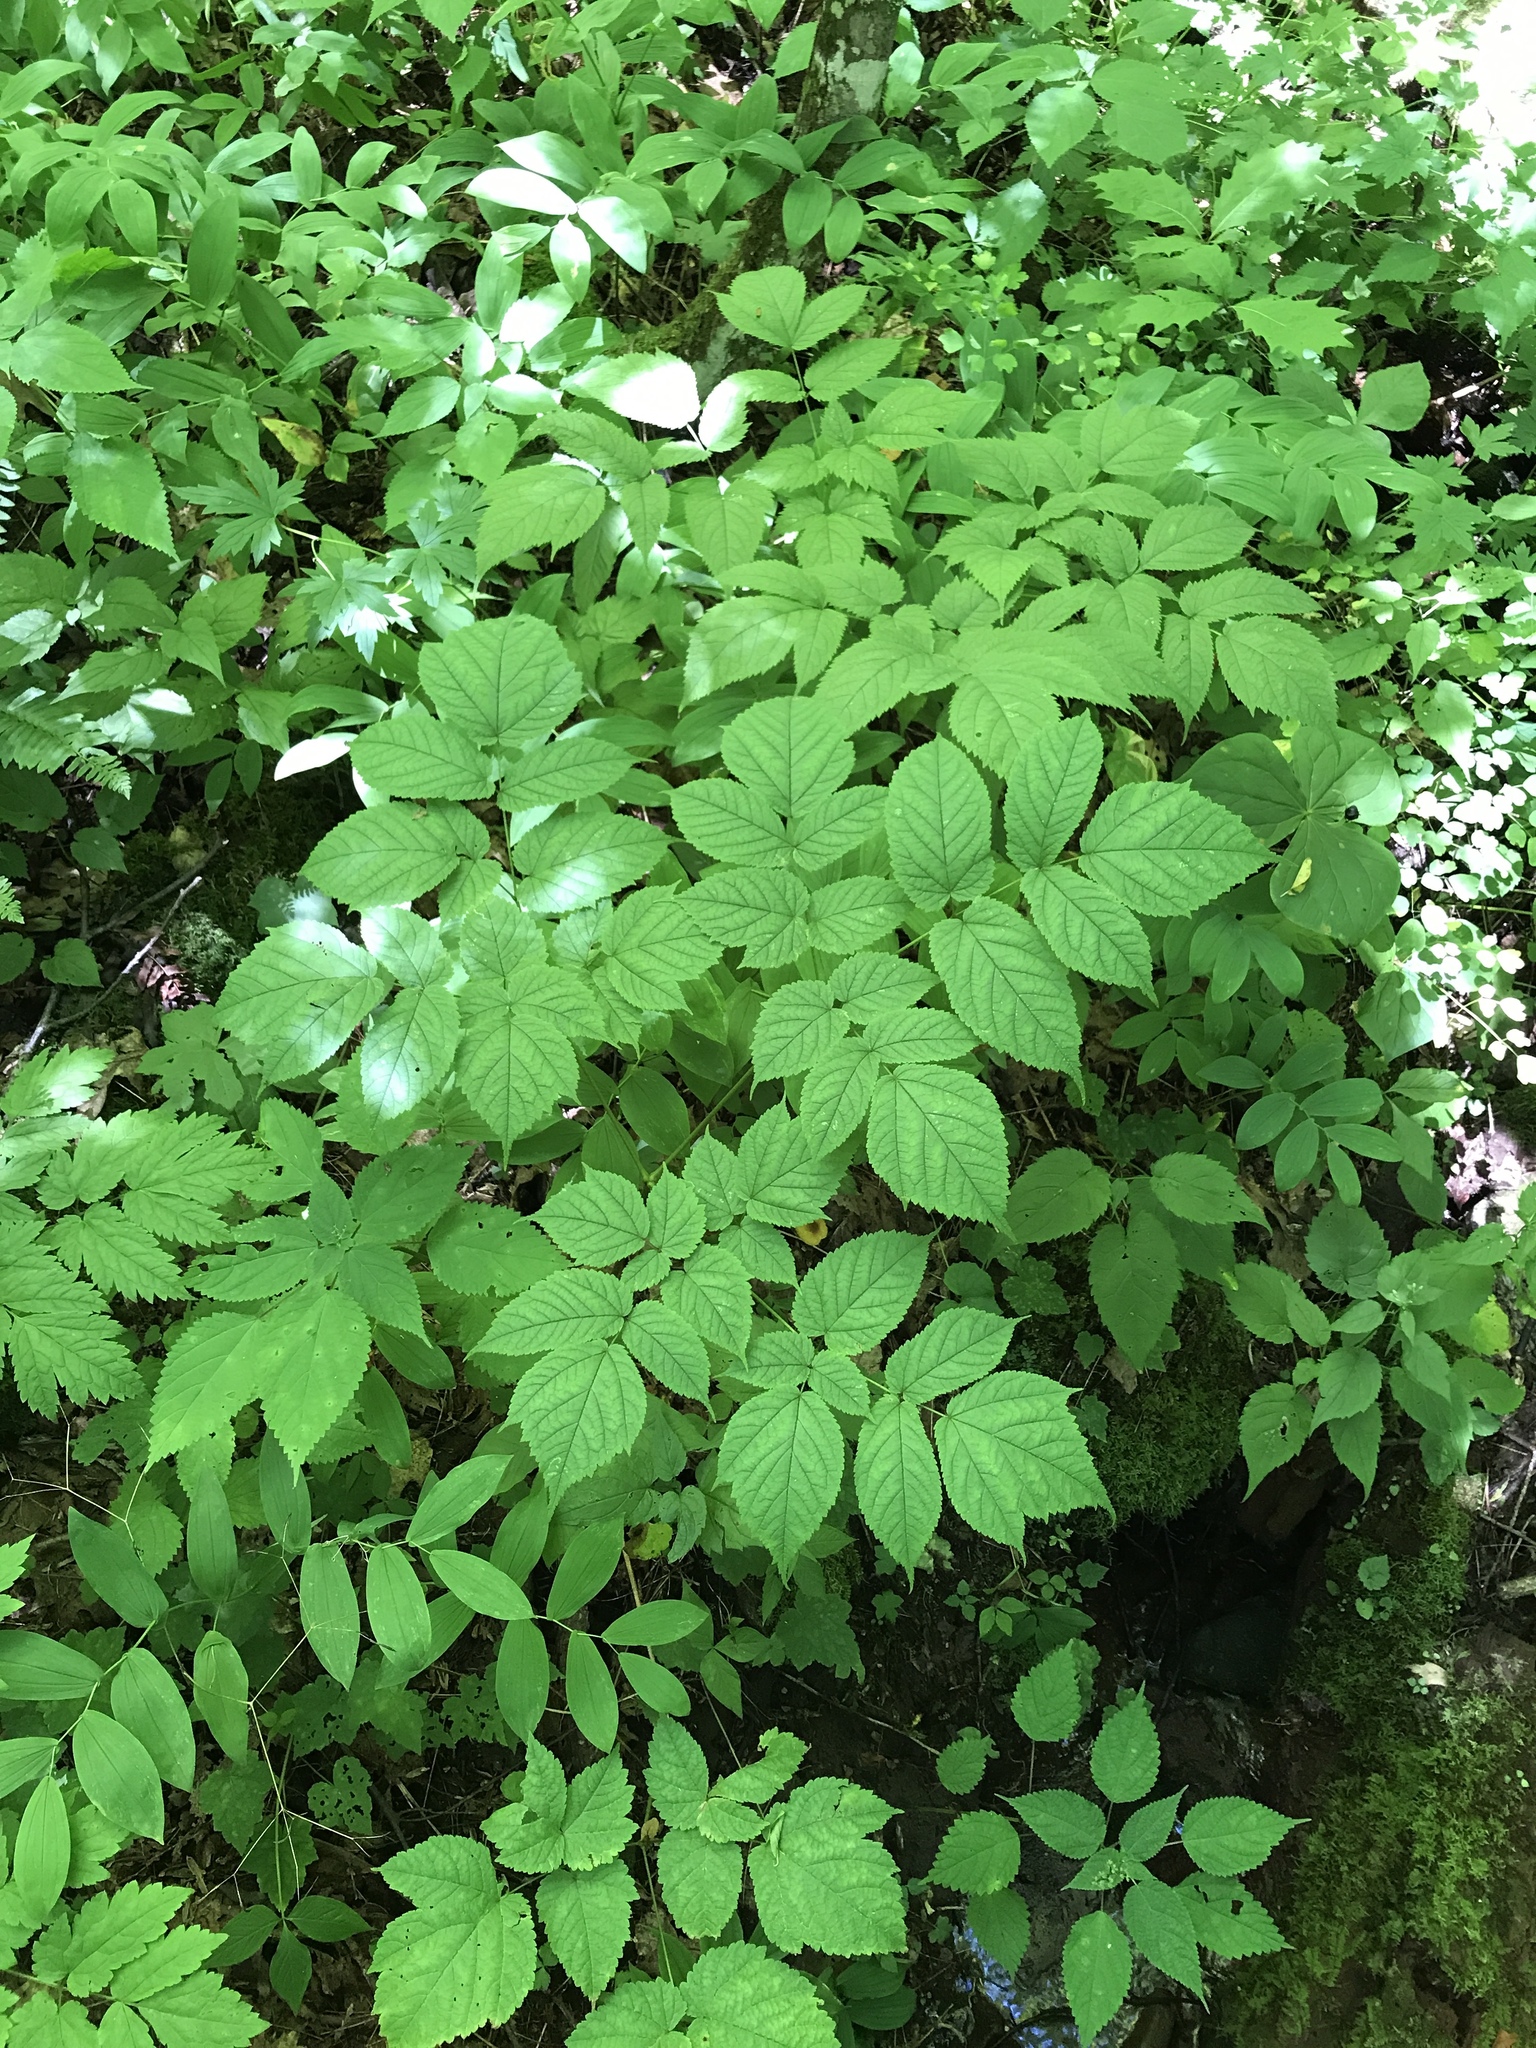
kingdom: Plantae
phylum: Tracheophyta
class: Magnoliopsida
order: Saxifragales
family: Saxifragaceae
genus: Astilbe
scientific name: Astilbe biternata
